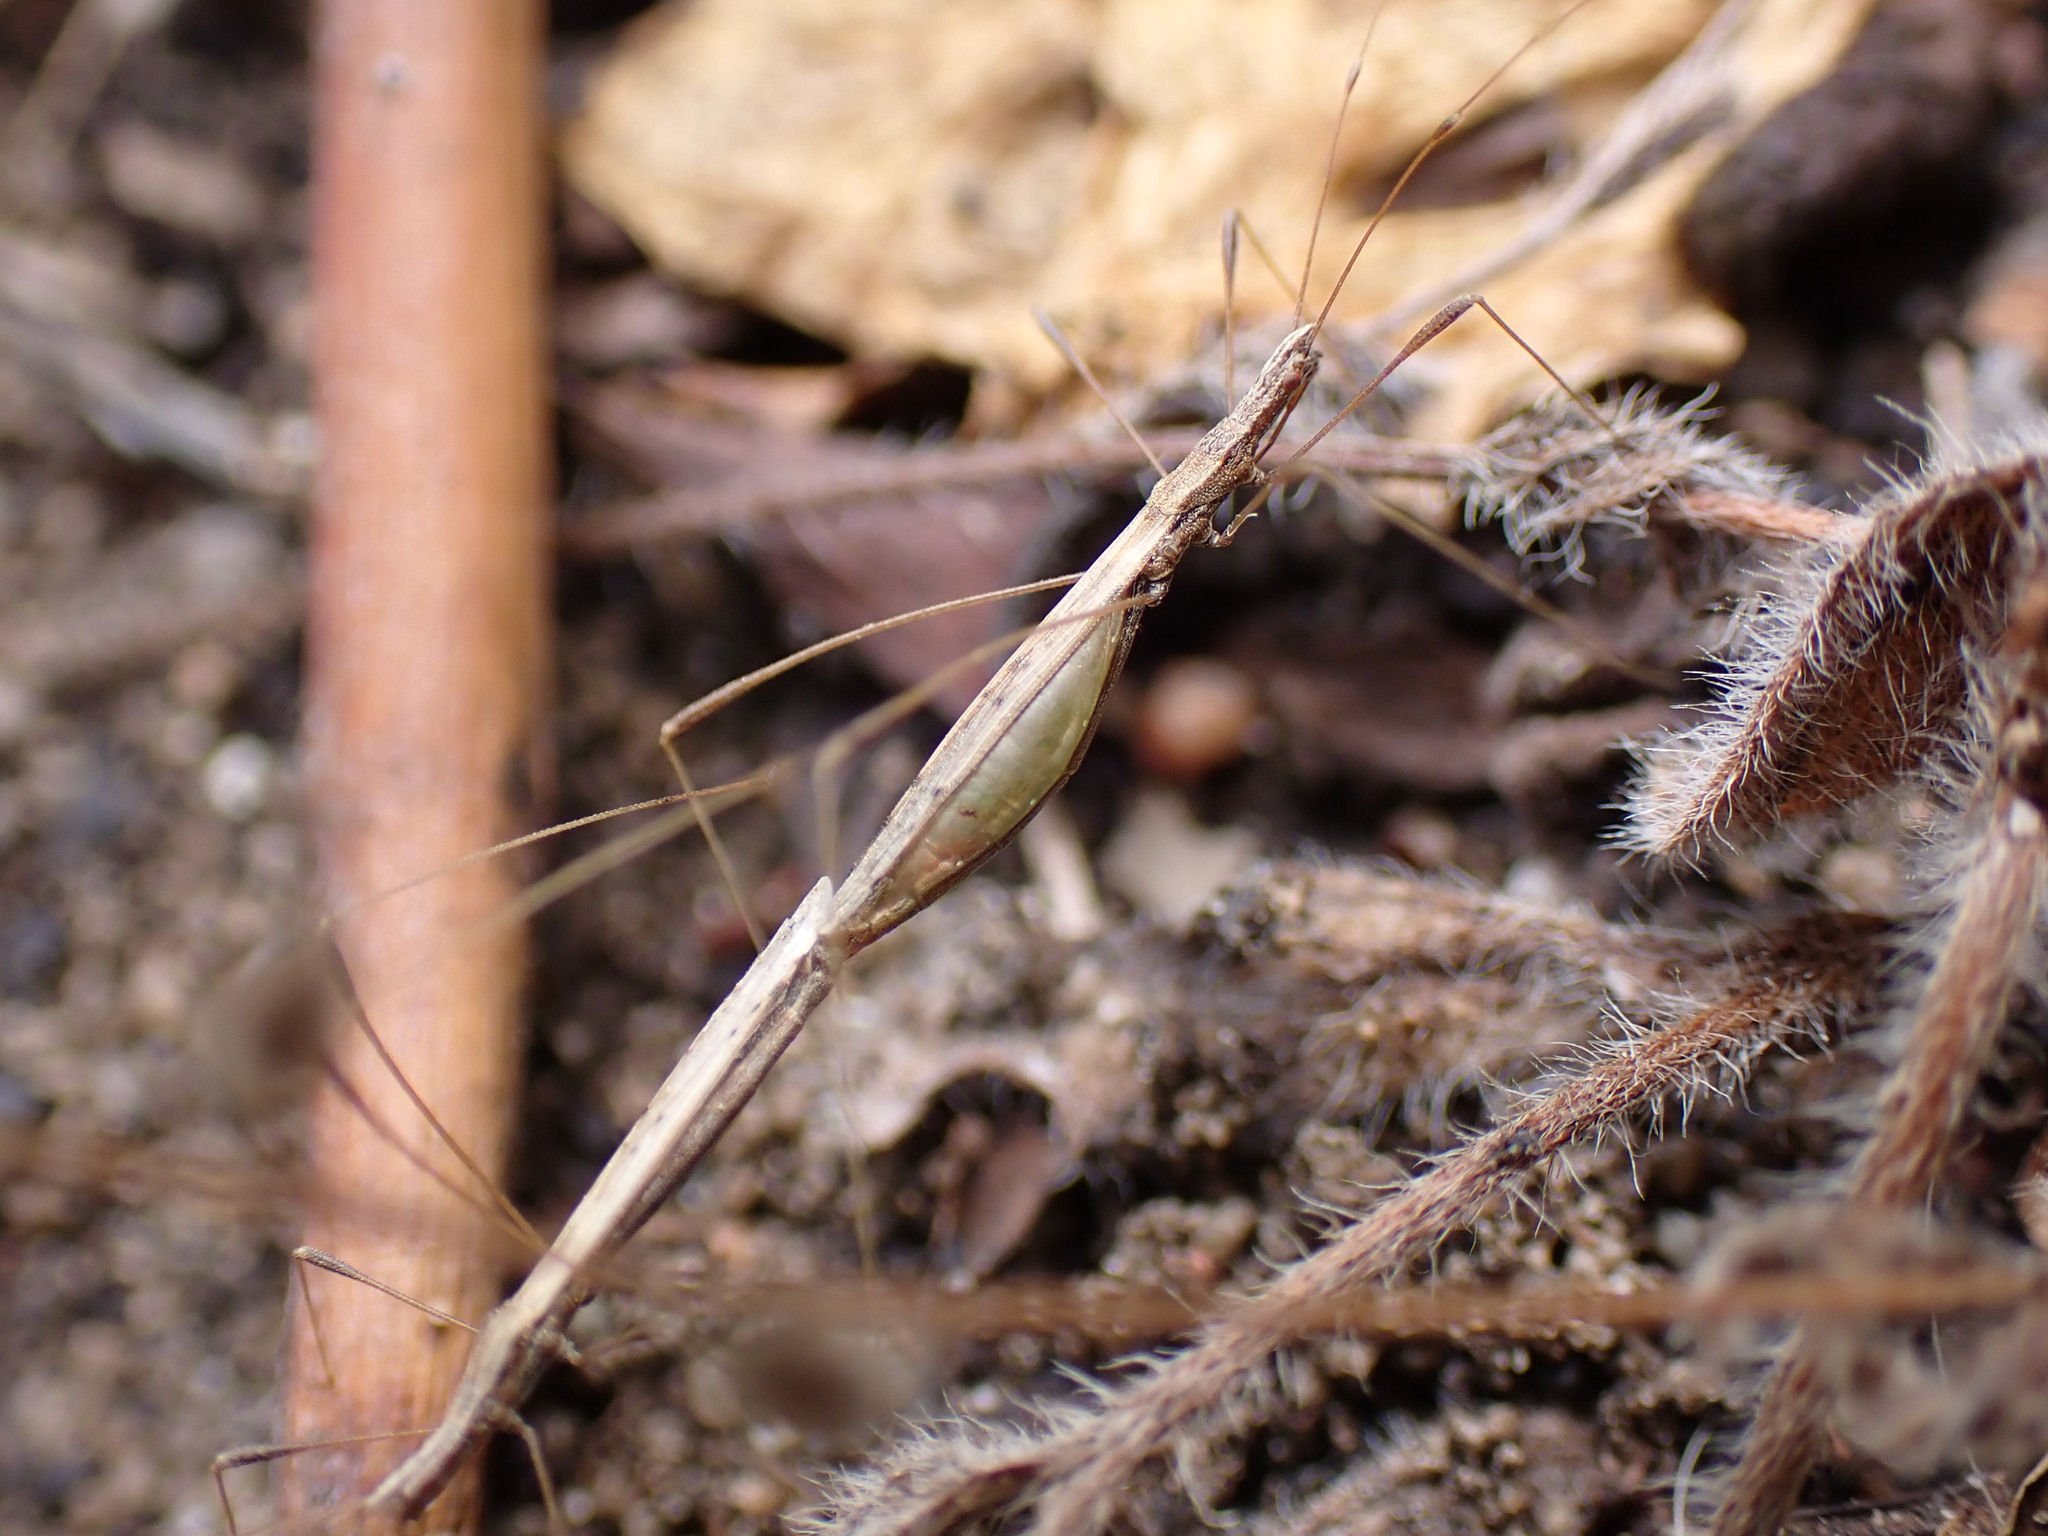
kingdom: Animalia
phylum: Arthropoda
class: Insecta
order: Hemiptera
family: Berytidae
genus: Neides
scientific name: Neides tipularius
